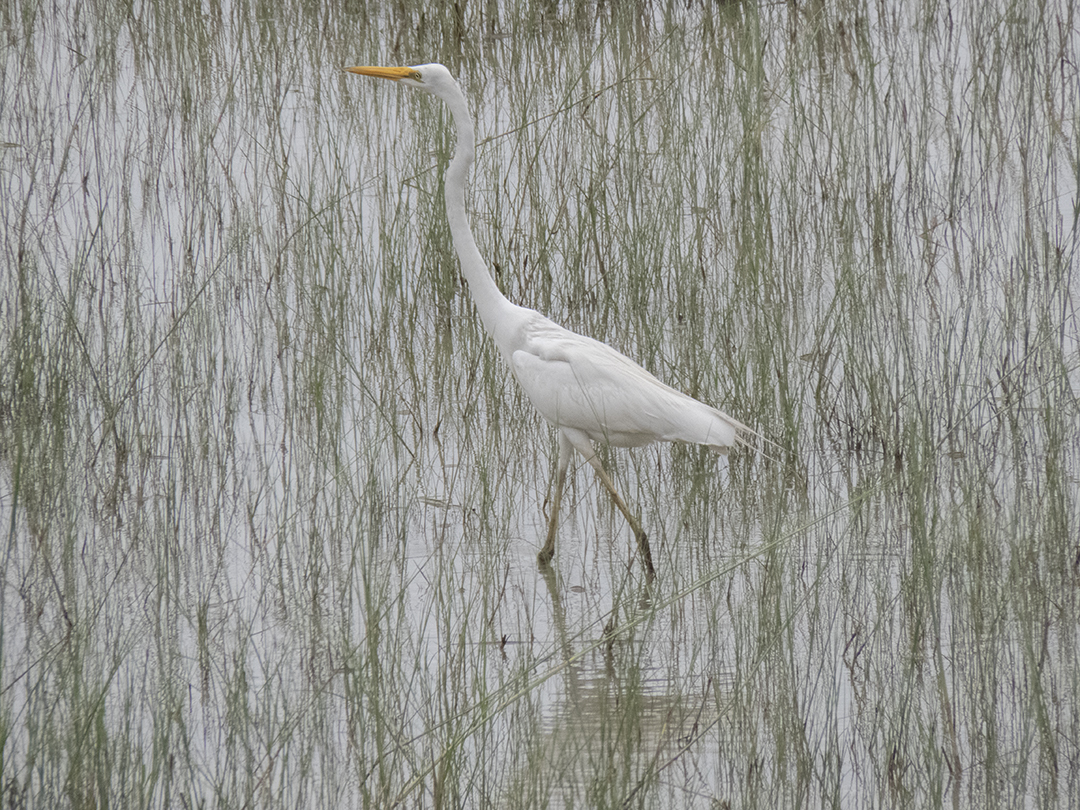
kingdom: Animalia
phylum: Chordata
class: Aves
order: Pelecaniformes
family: Ardeidae
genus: Ardea
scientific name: Ardea alba
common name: Great egret
